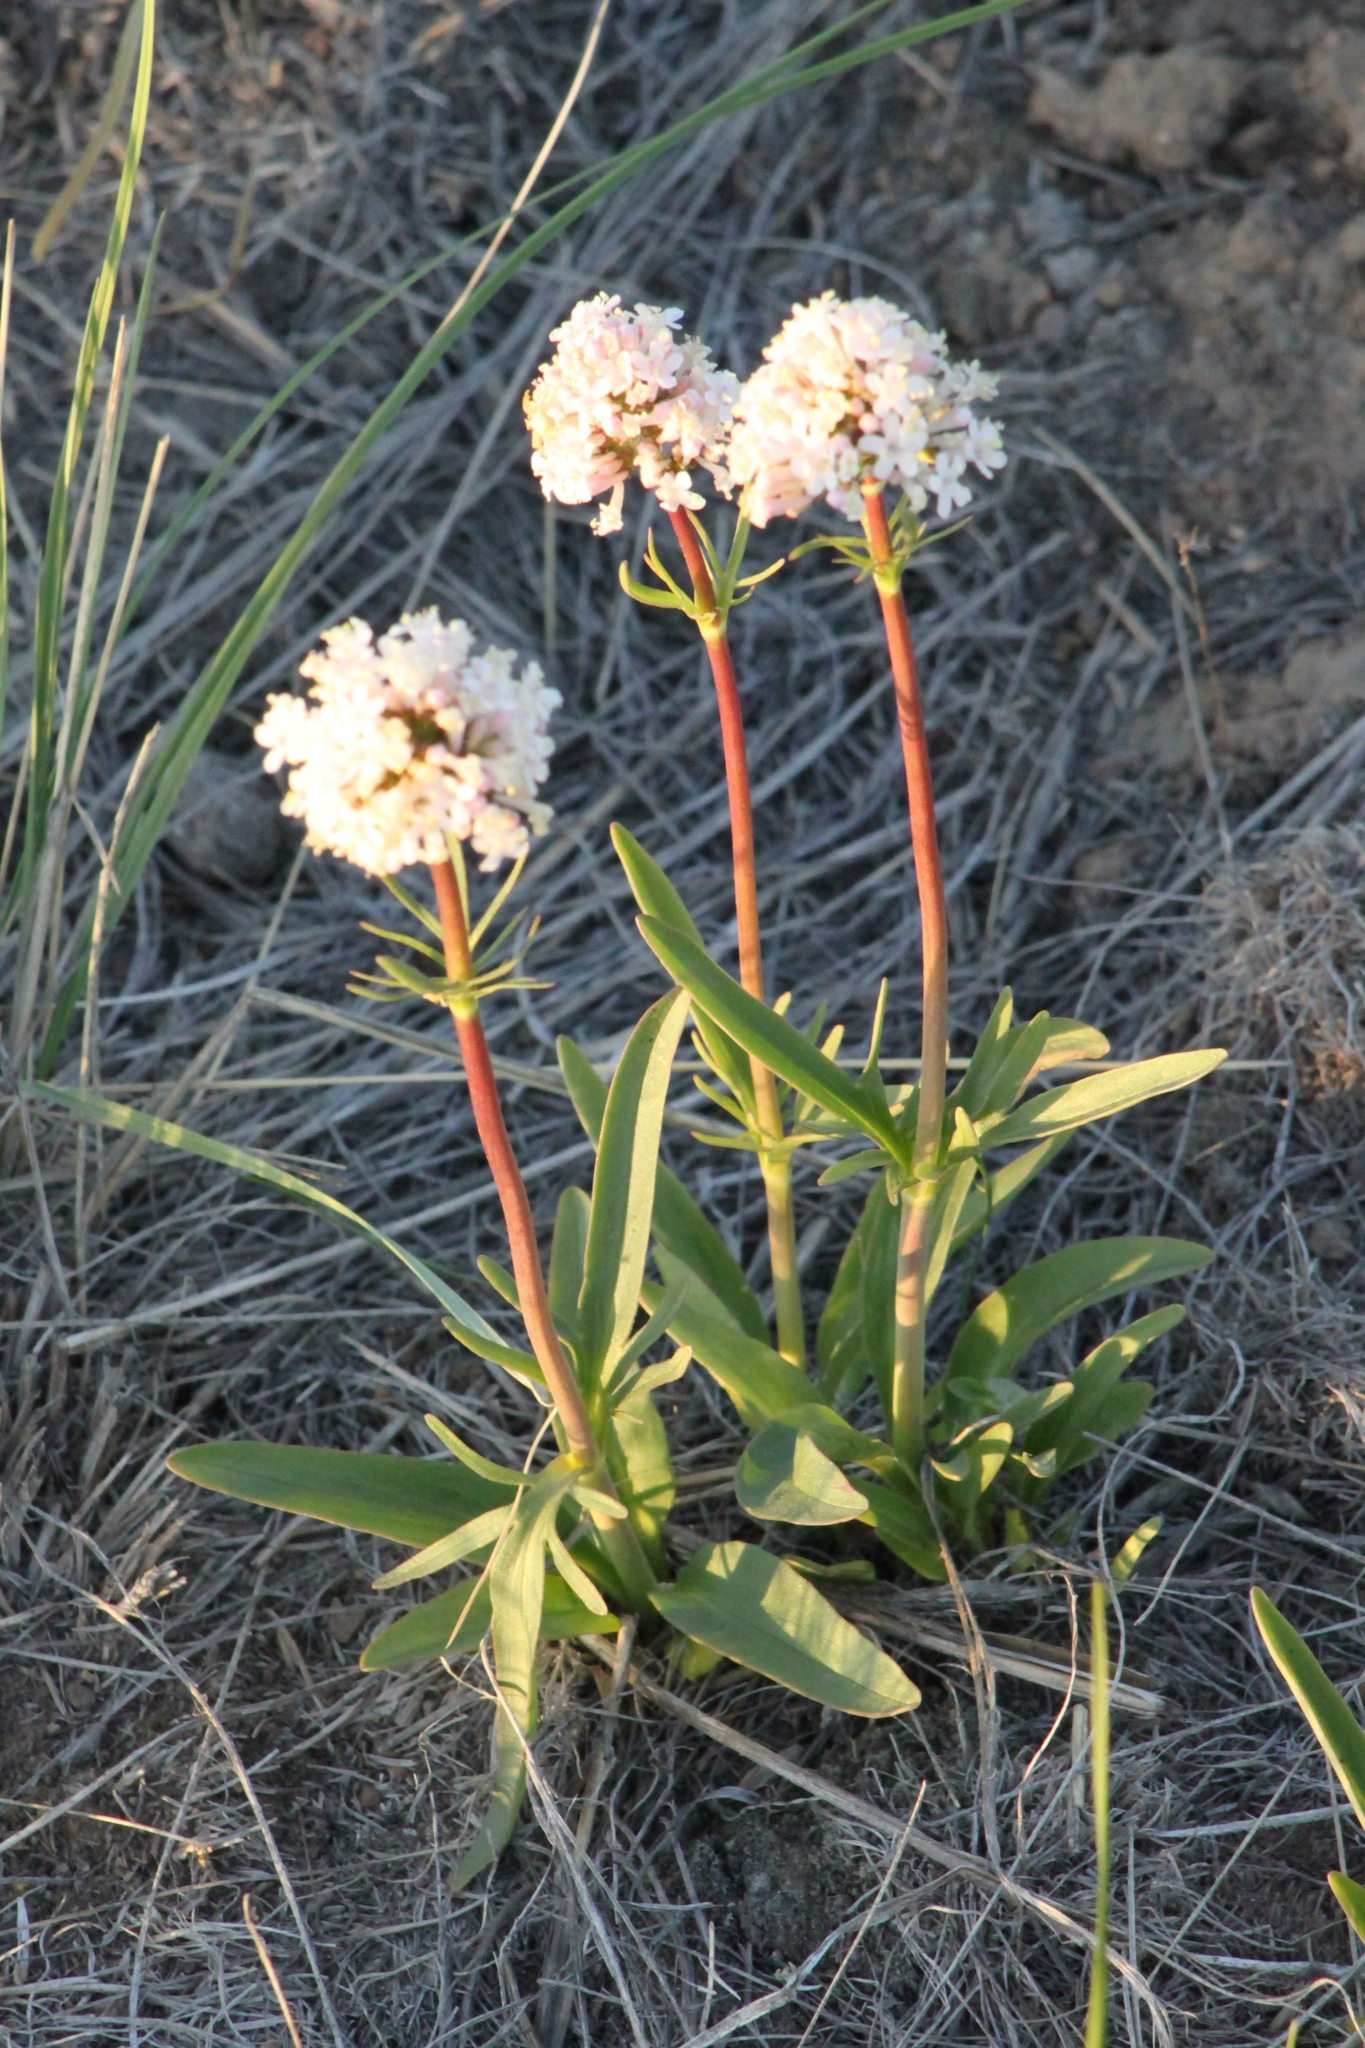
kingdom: Plantae
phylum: Tracheophyta
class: Magnoliopsida
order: Dipsacales
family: Caprifoliaceae
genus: Valeriana
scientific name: Valeriana tuberosa
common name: Tuberous valerian
